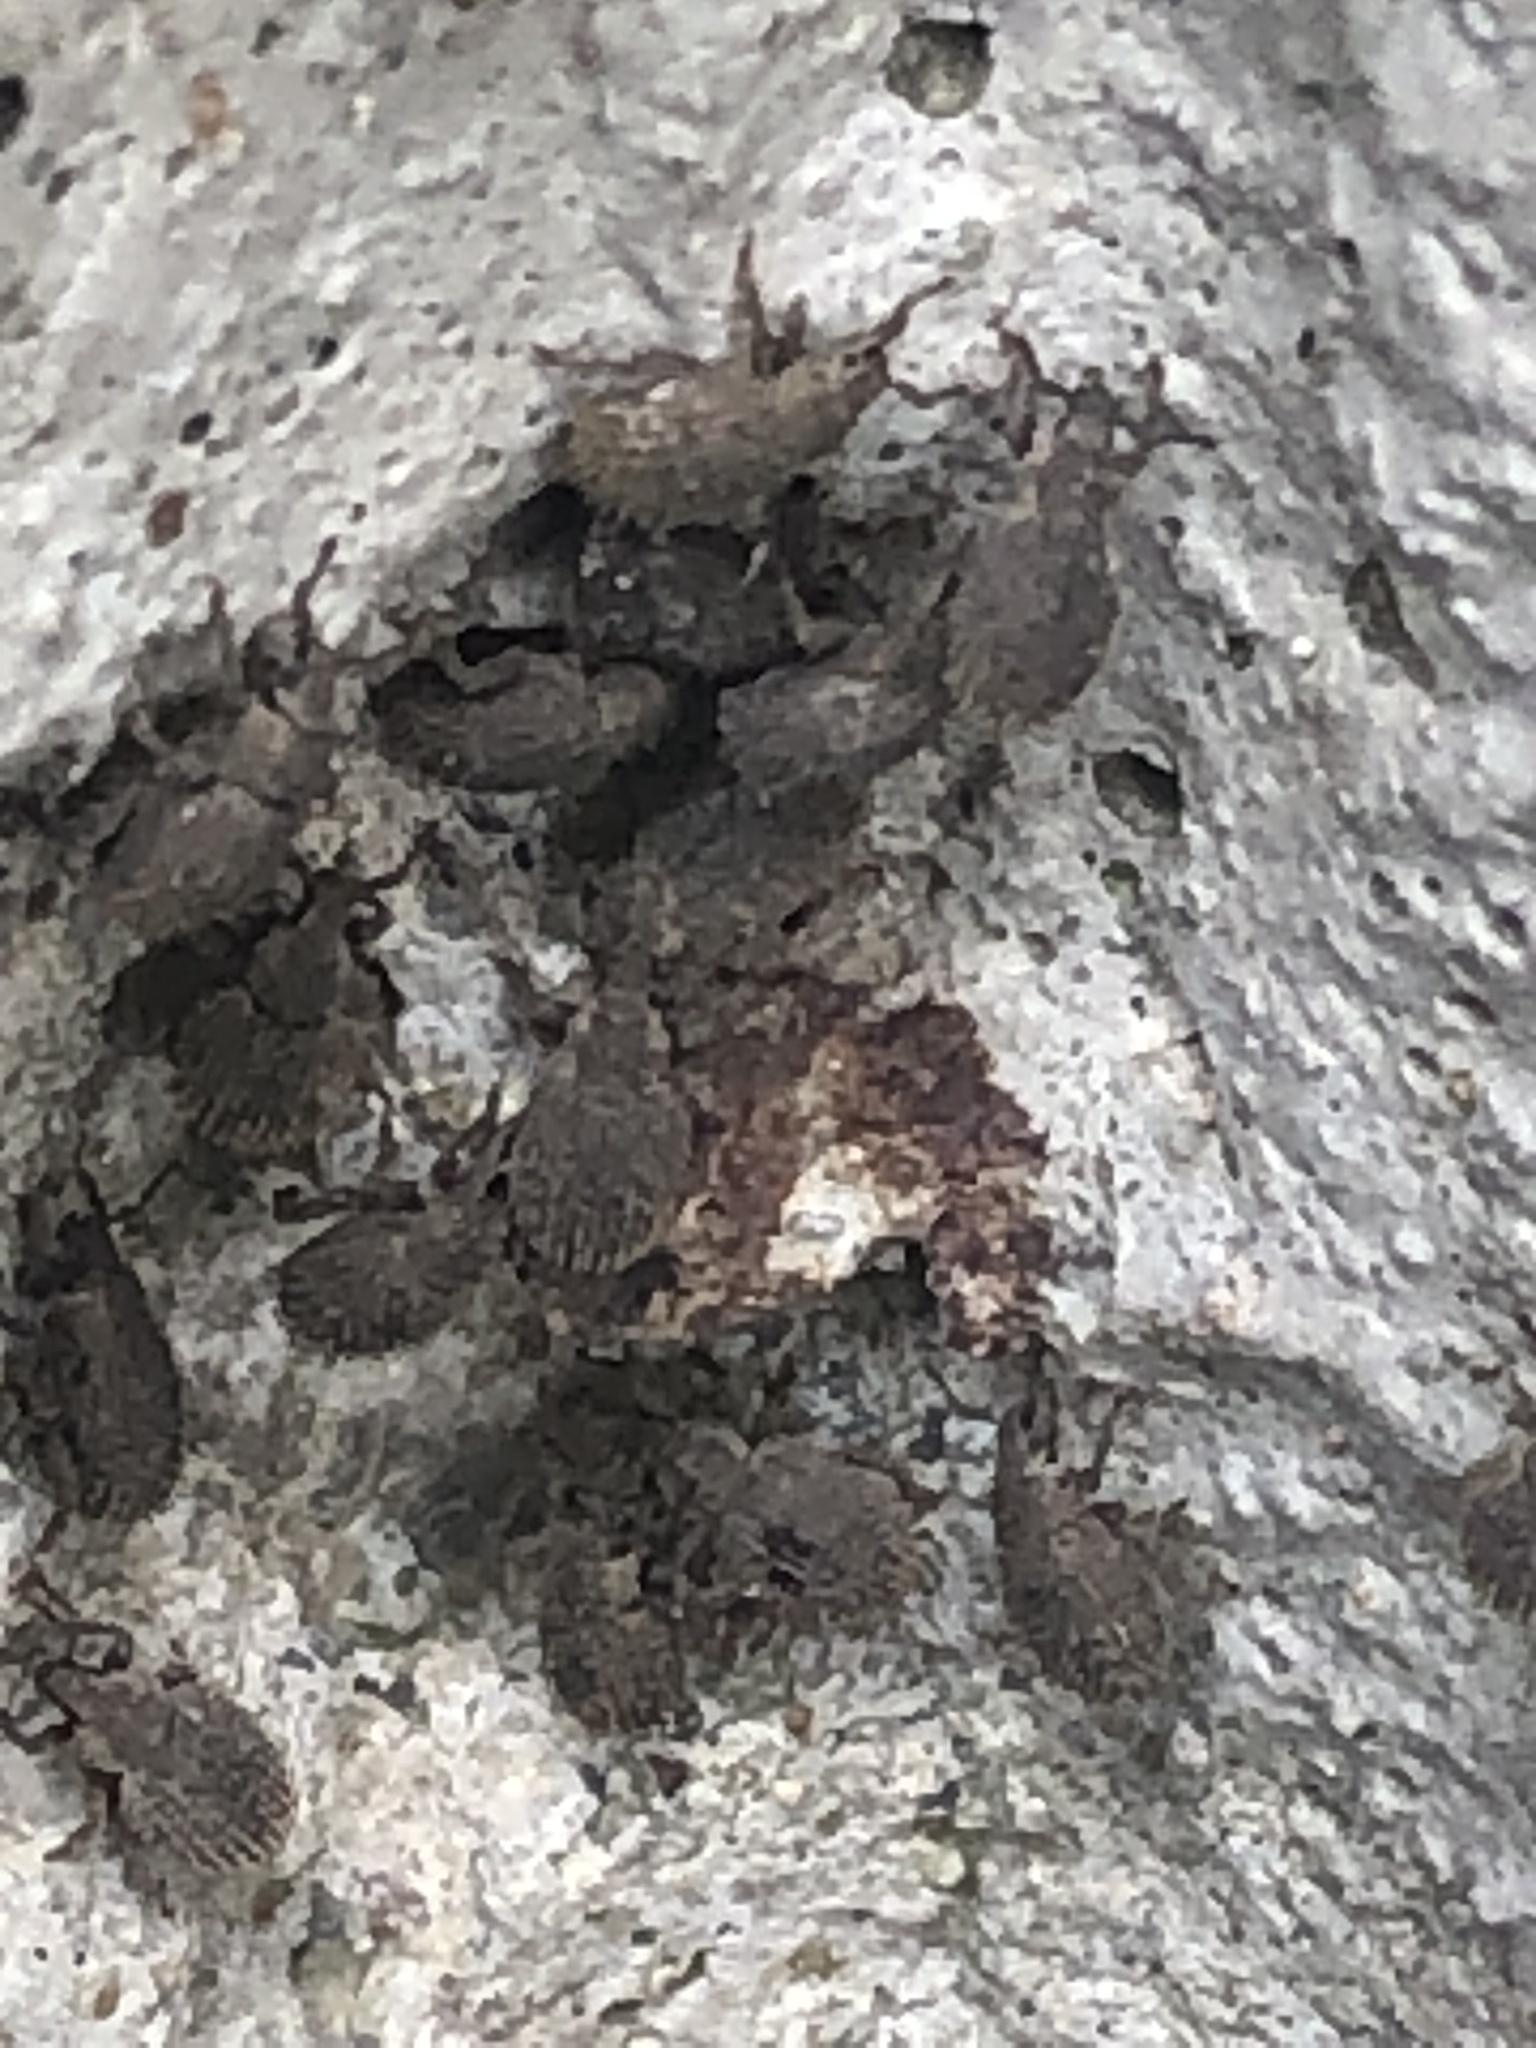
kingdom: Animalia
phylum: Arthropoda
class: Insecta
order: Coleoptera
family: Curculionidae
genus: Cathormiocerus
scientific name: Cathormiocerus aristatus
